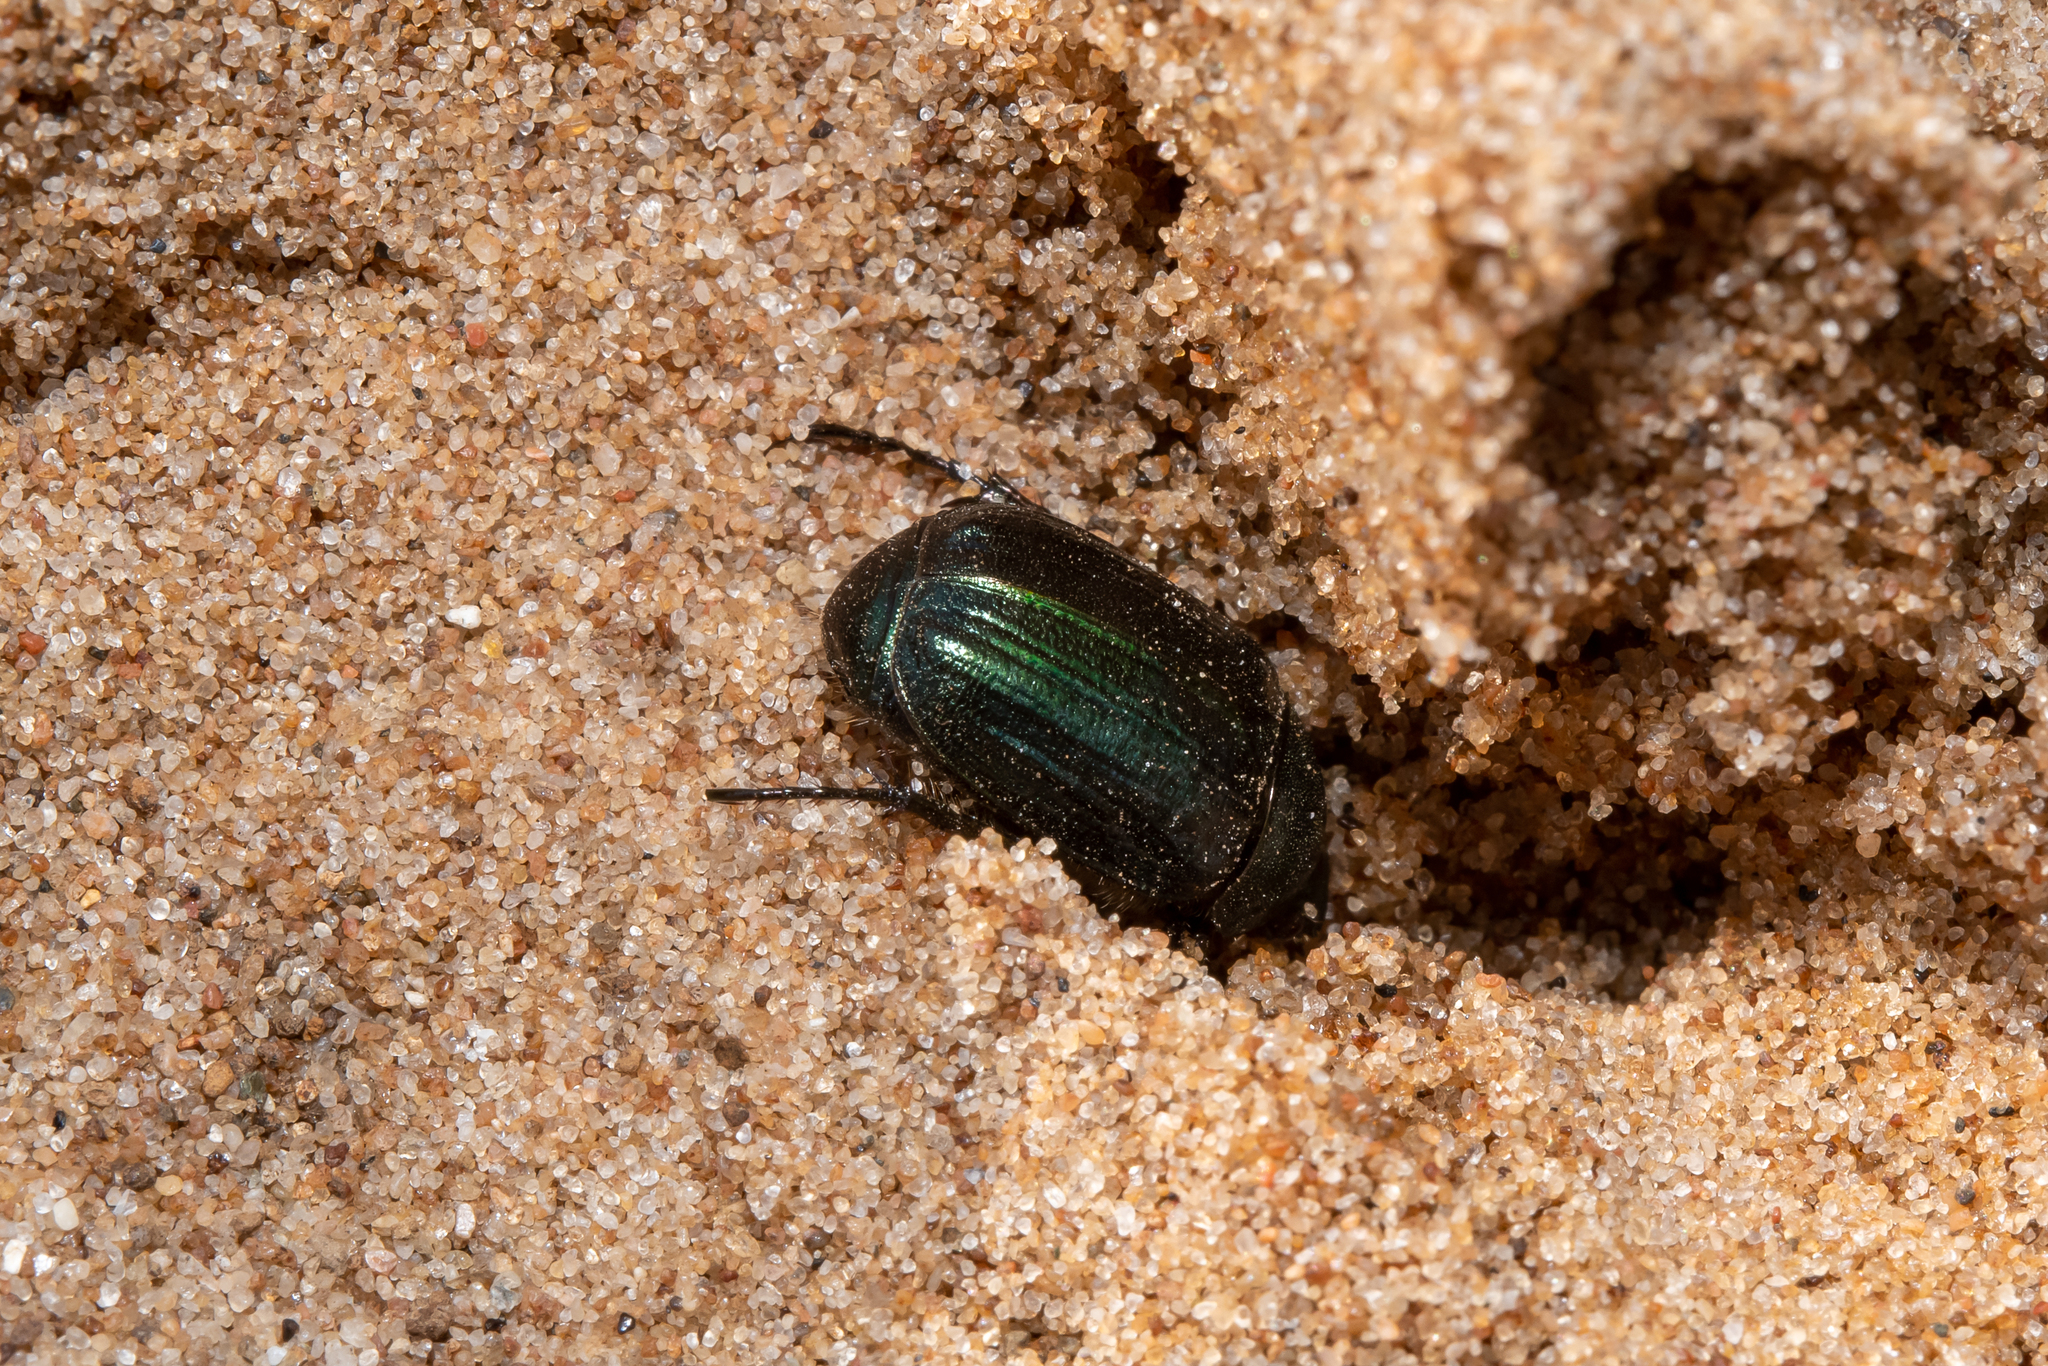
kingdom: Animalia
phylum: Arthropoda
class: Insecta
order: Coleoptera
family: Scarabaeidae
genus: Anomala
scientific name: Anomala dubia
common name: Dune chafer
